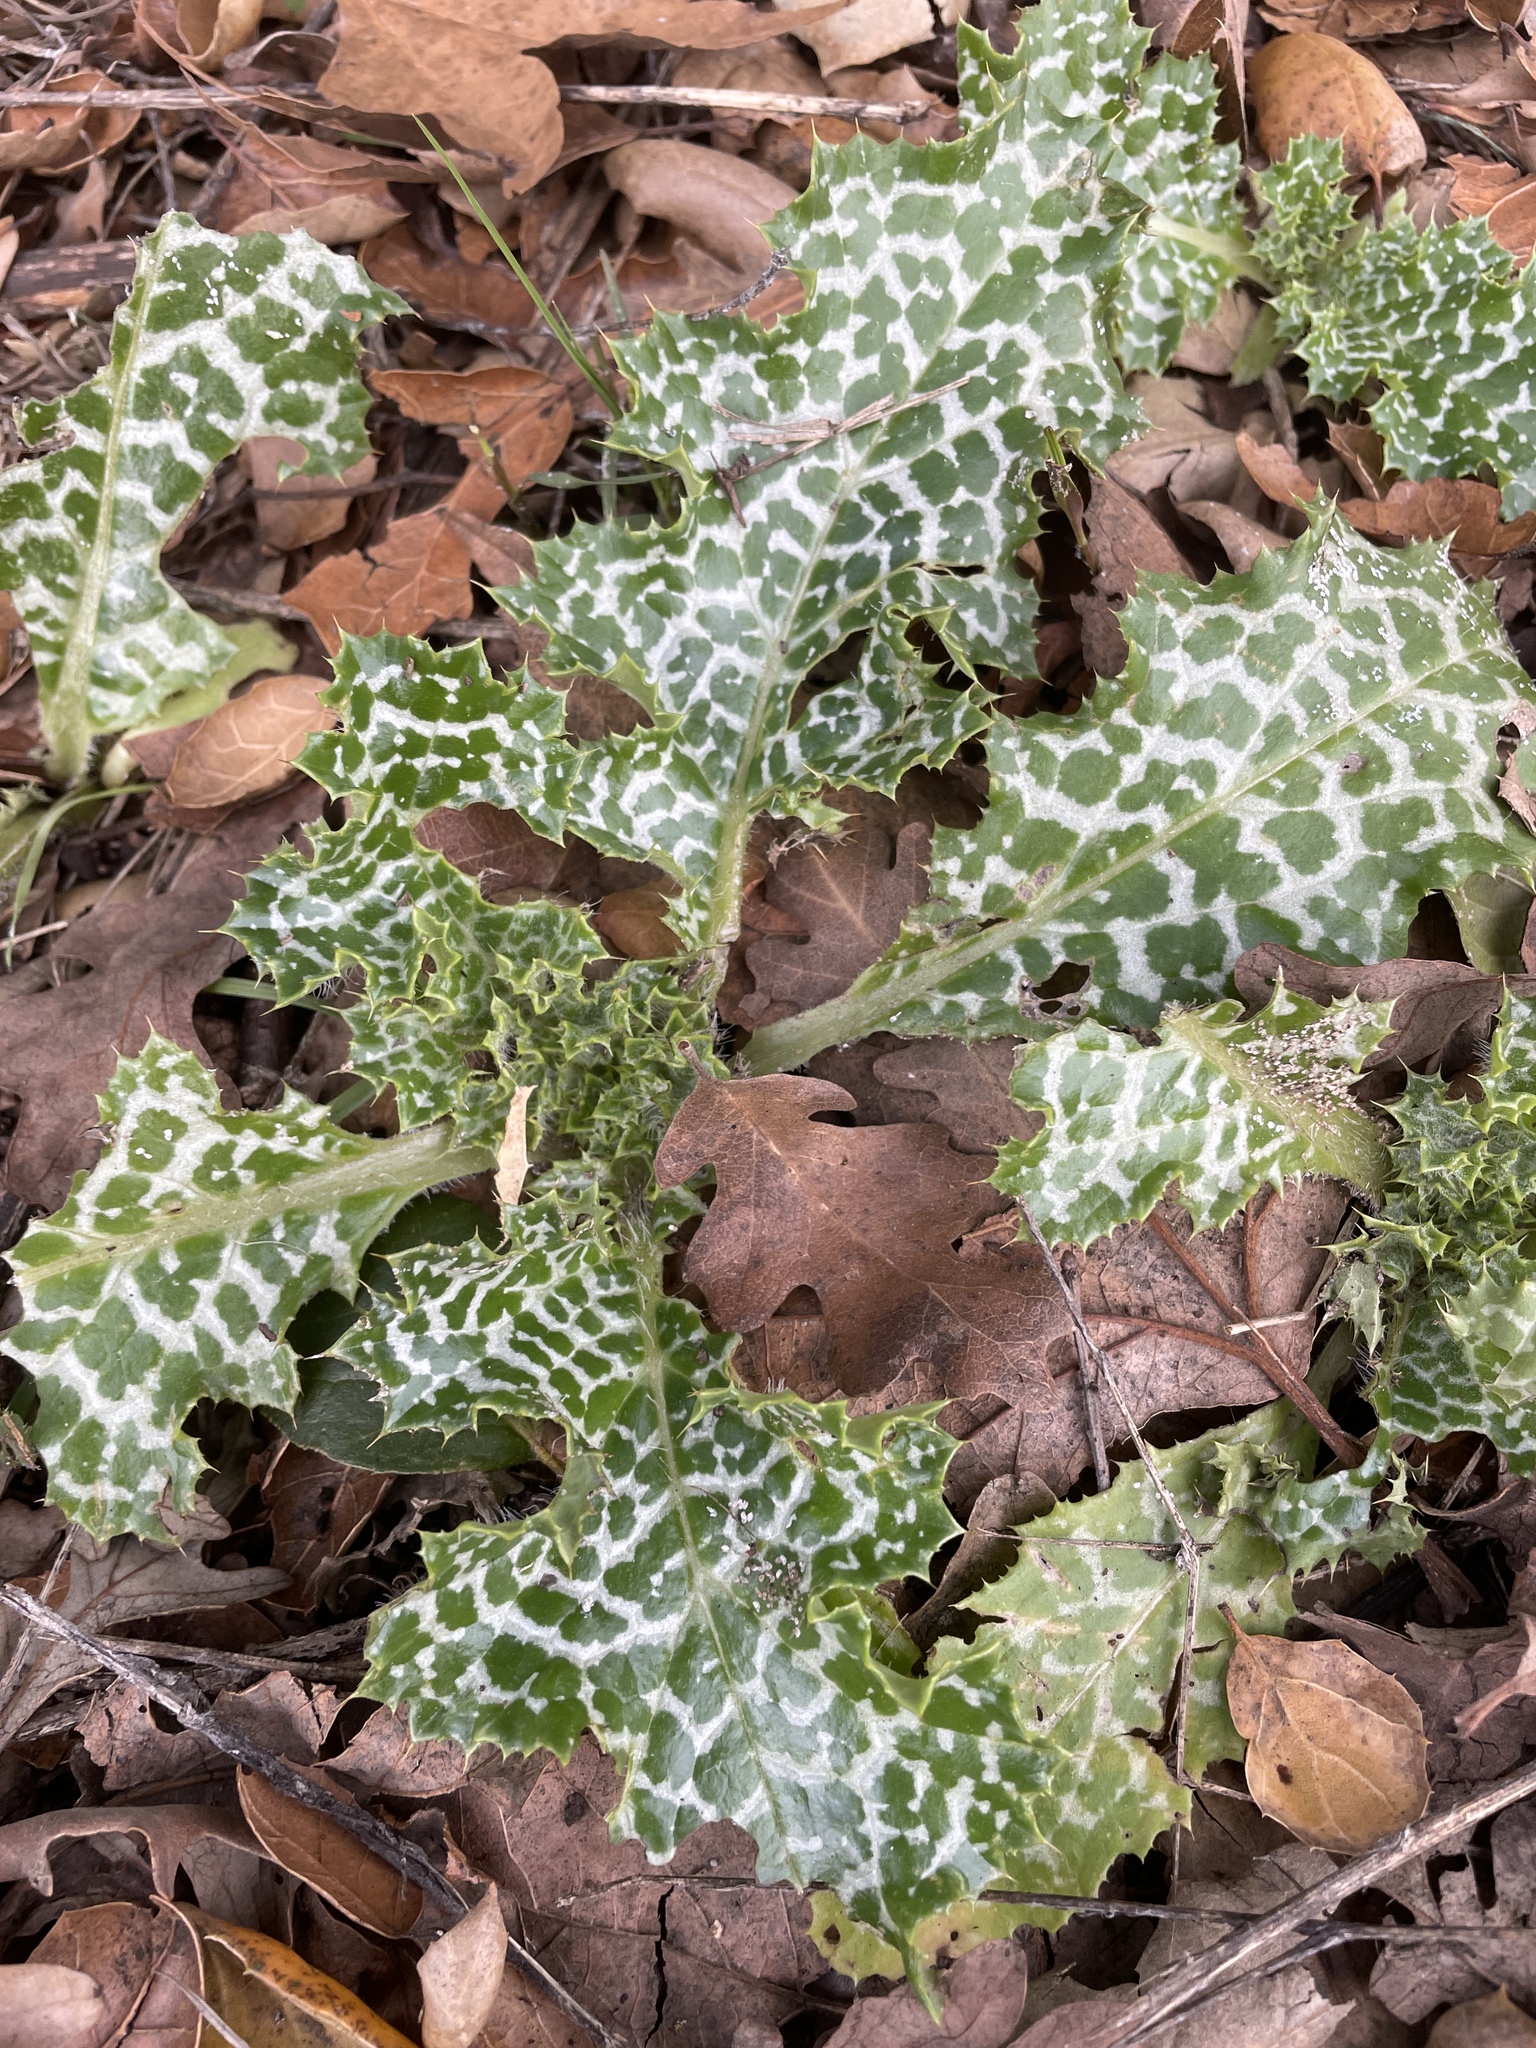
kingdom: Plantae
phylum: Tracheophyta
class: Magnoliopsida
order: Asterales
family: Asteraceae
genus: Silybum
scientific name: Silybum marianum
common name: Milk thistle
